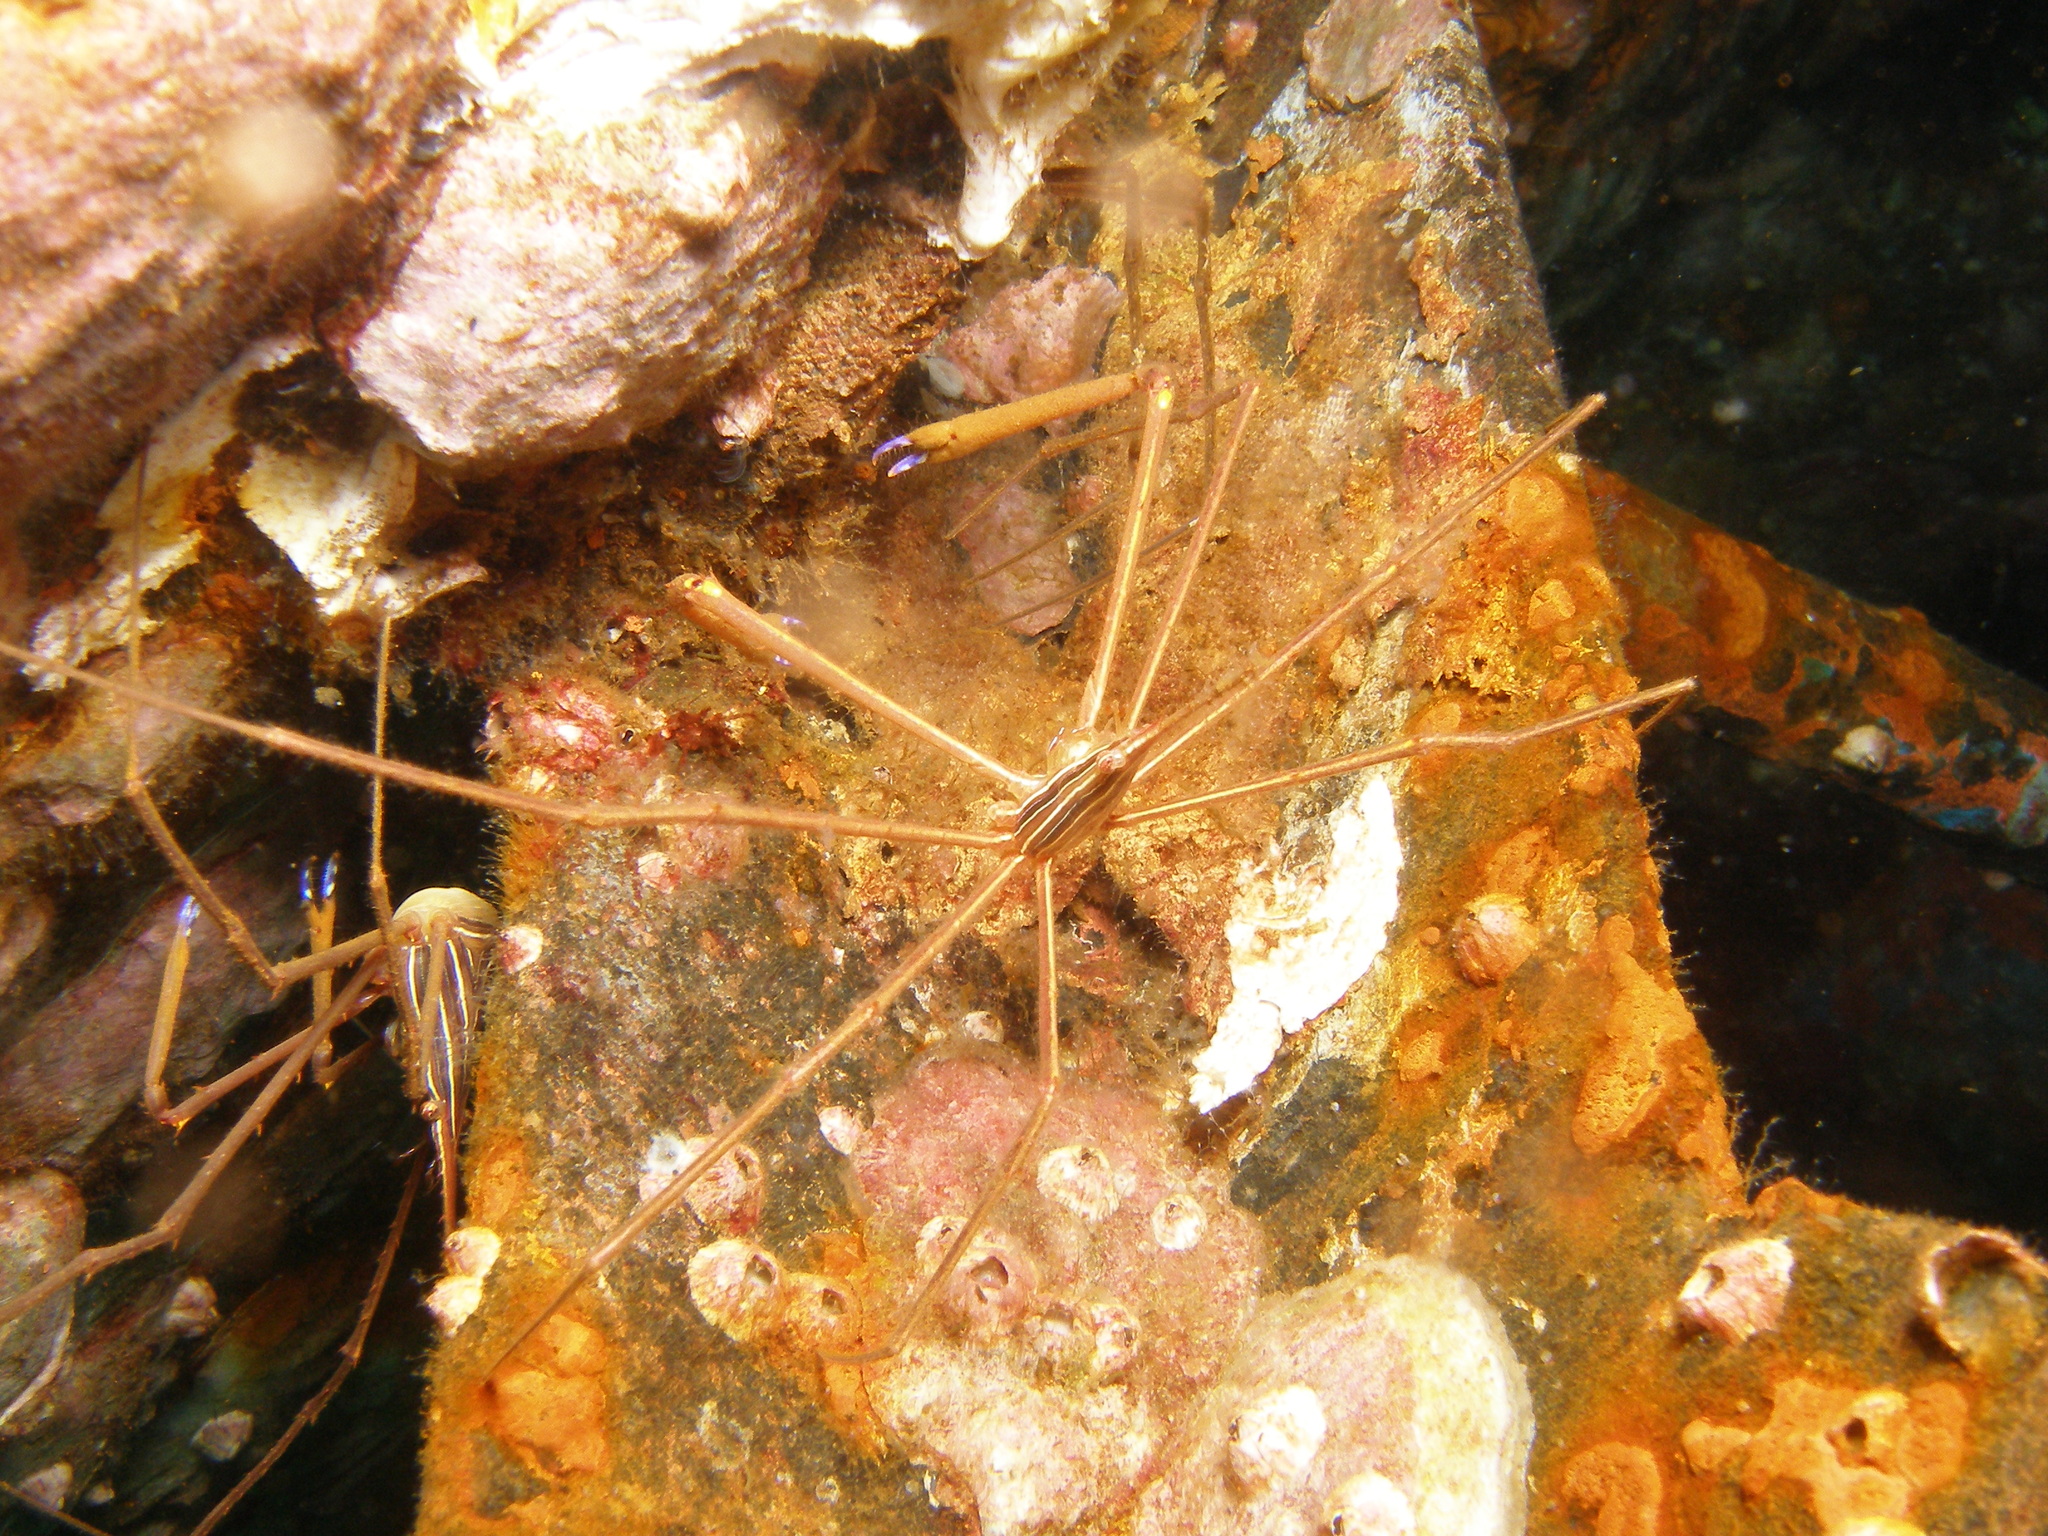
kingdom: Animalia
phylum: Arthropoda
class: Malacostraca
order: Decapoda
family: Inachoididae
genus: Stenorhynchus
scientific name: Stenorhynchus seticornis
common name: Arrow crab
